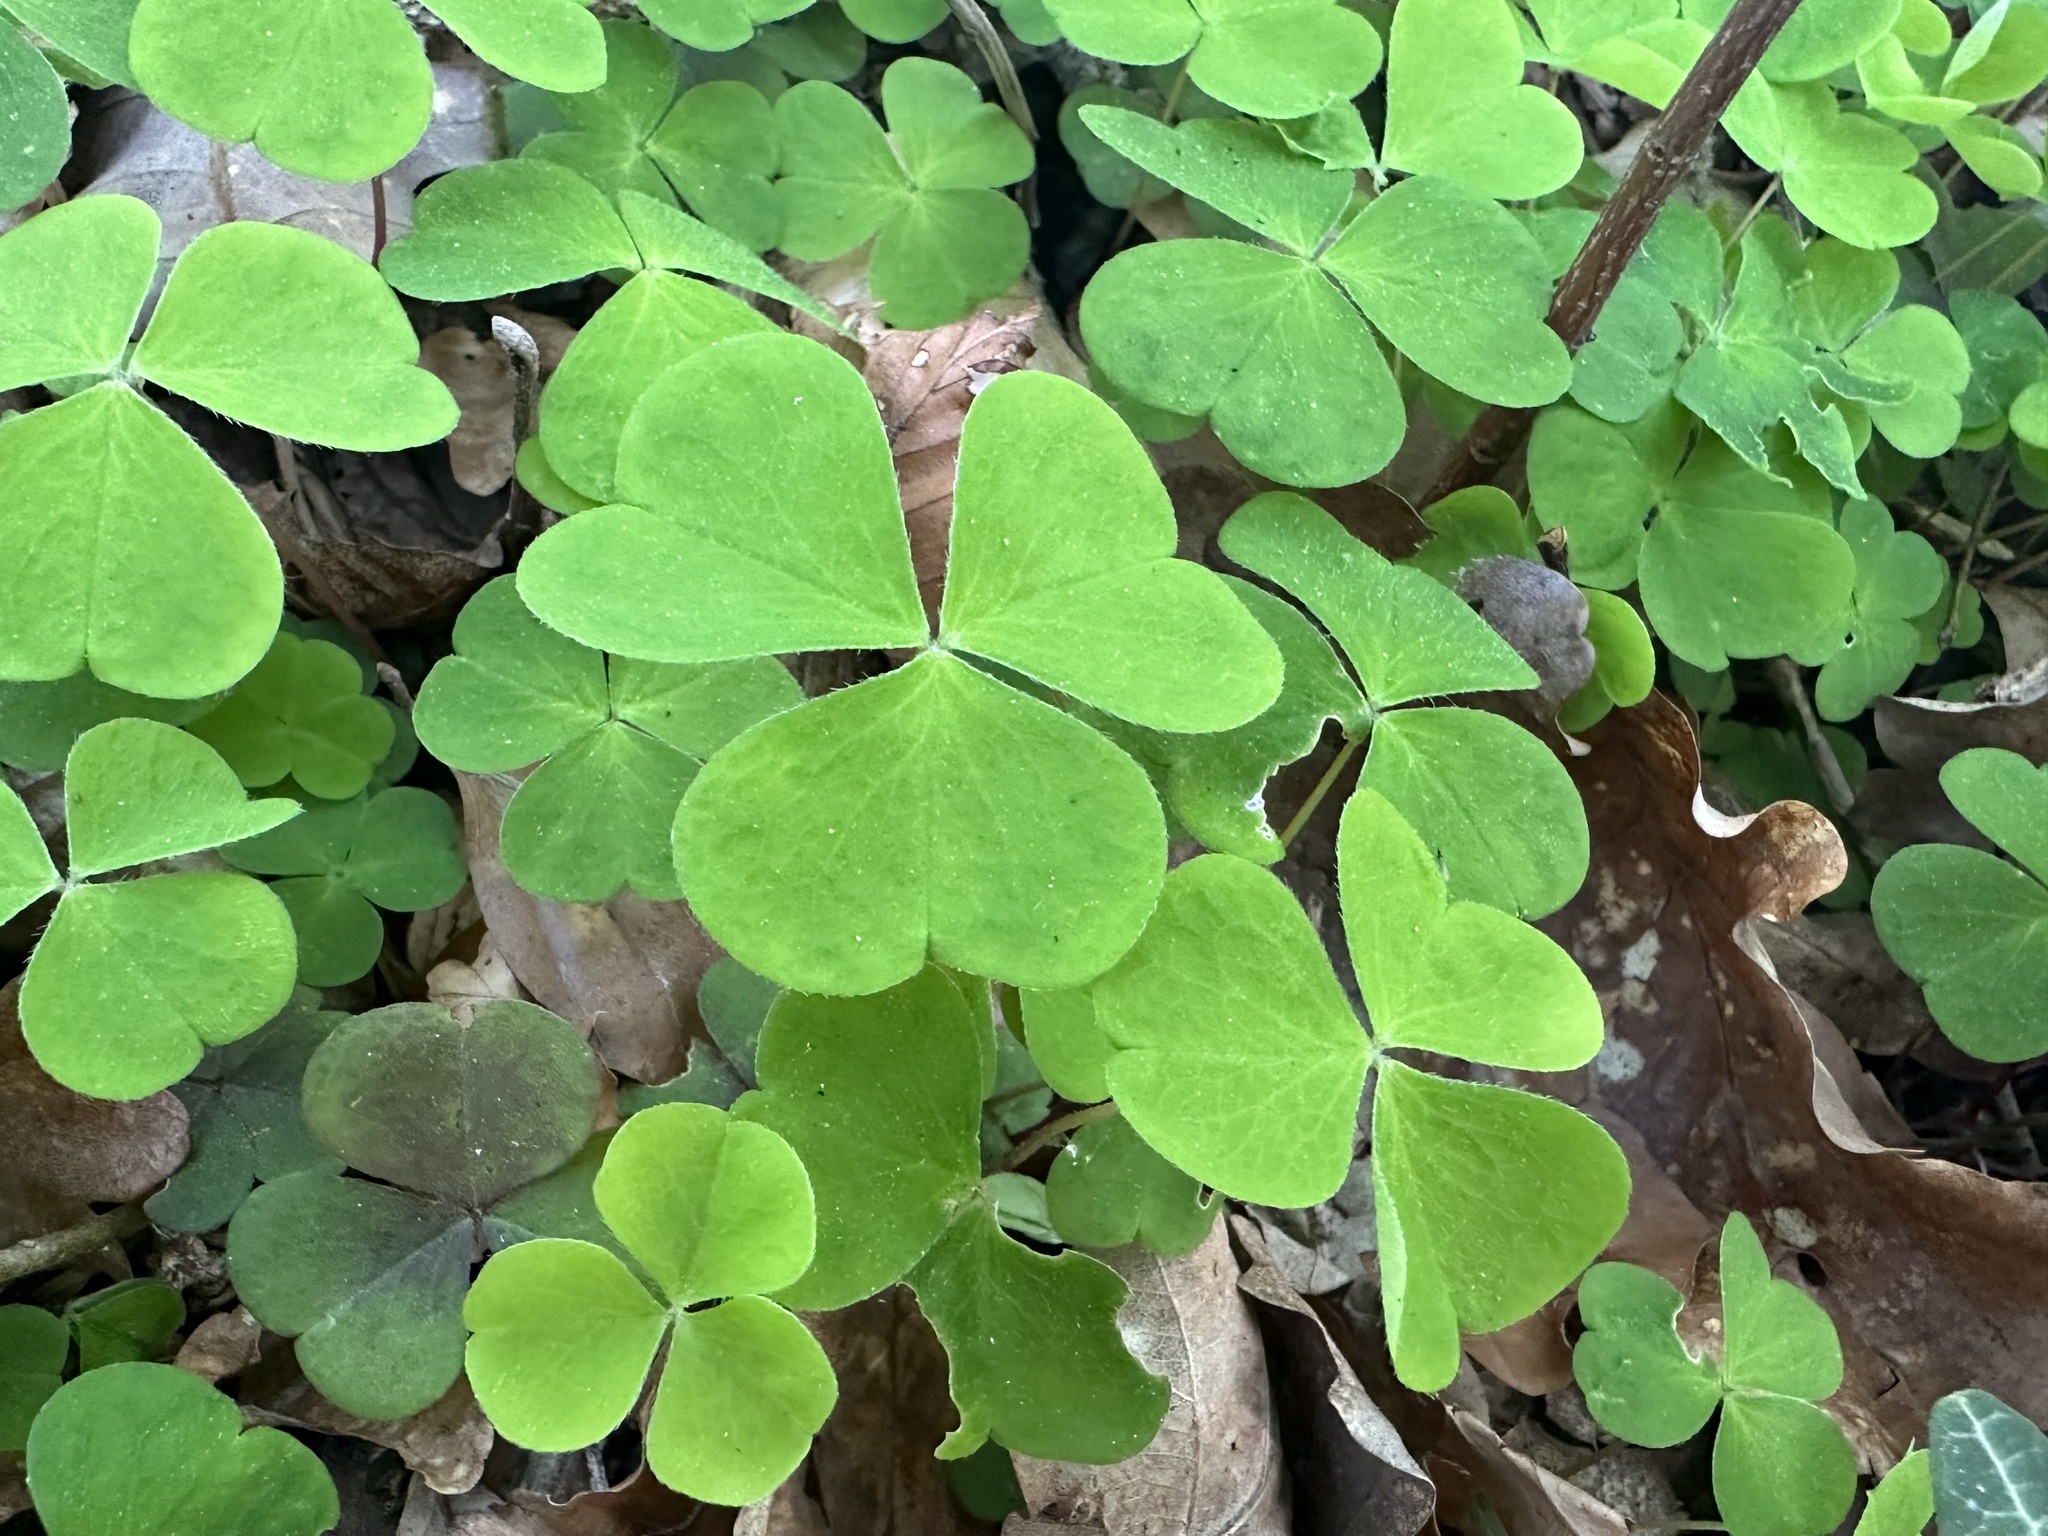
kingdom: Plantae
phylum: Tracheophyta
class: Magnoliopsida
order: Oxalidales
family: Oxalidaceae
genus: Oxalis
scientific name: Oxalis acetosella
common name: Wood-sorrel
